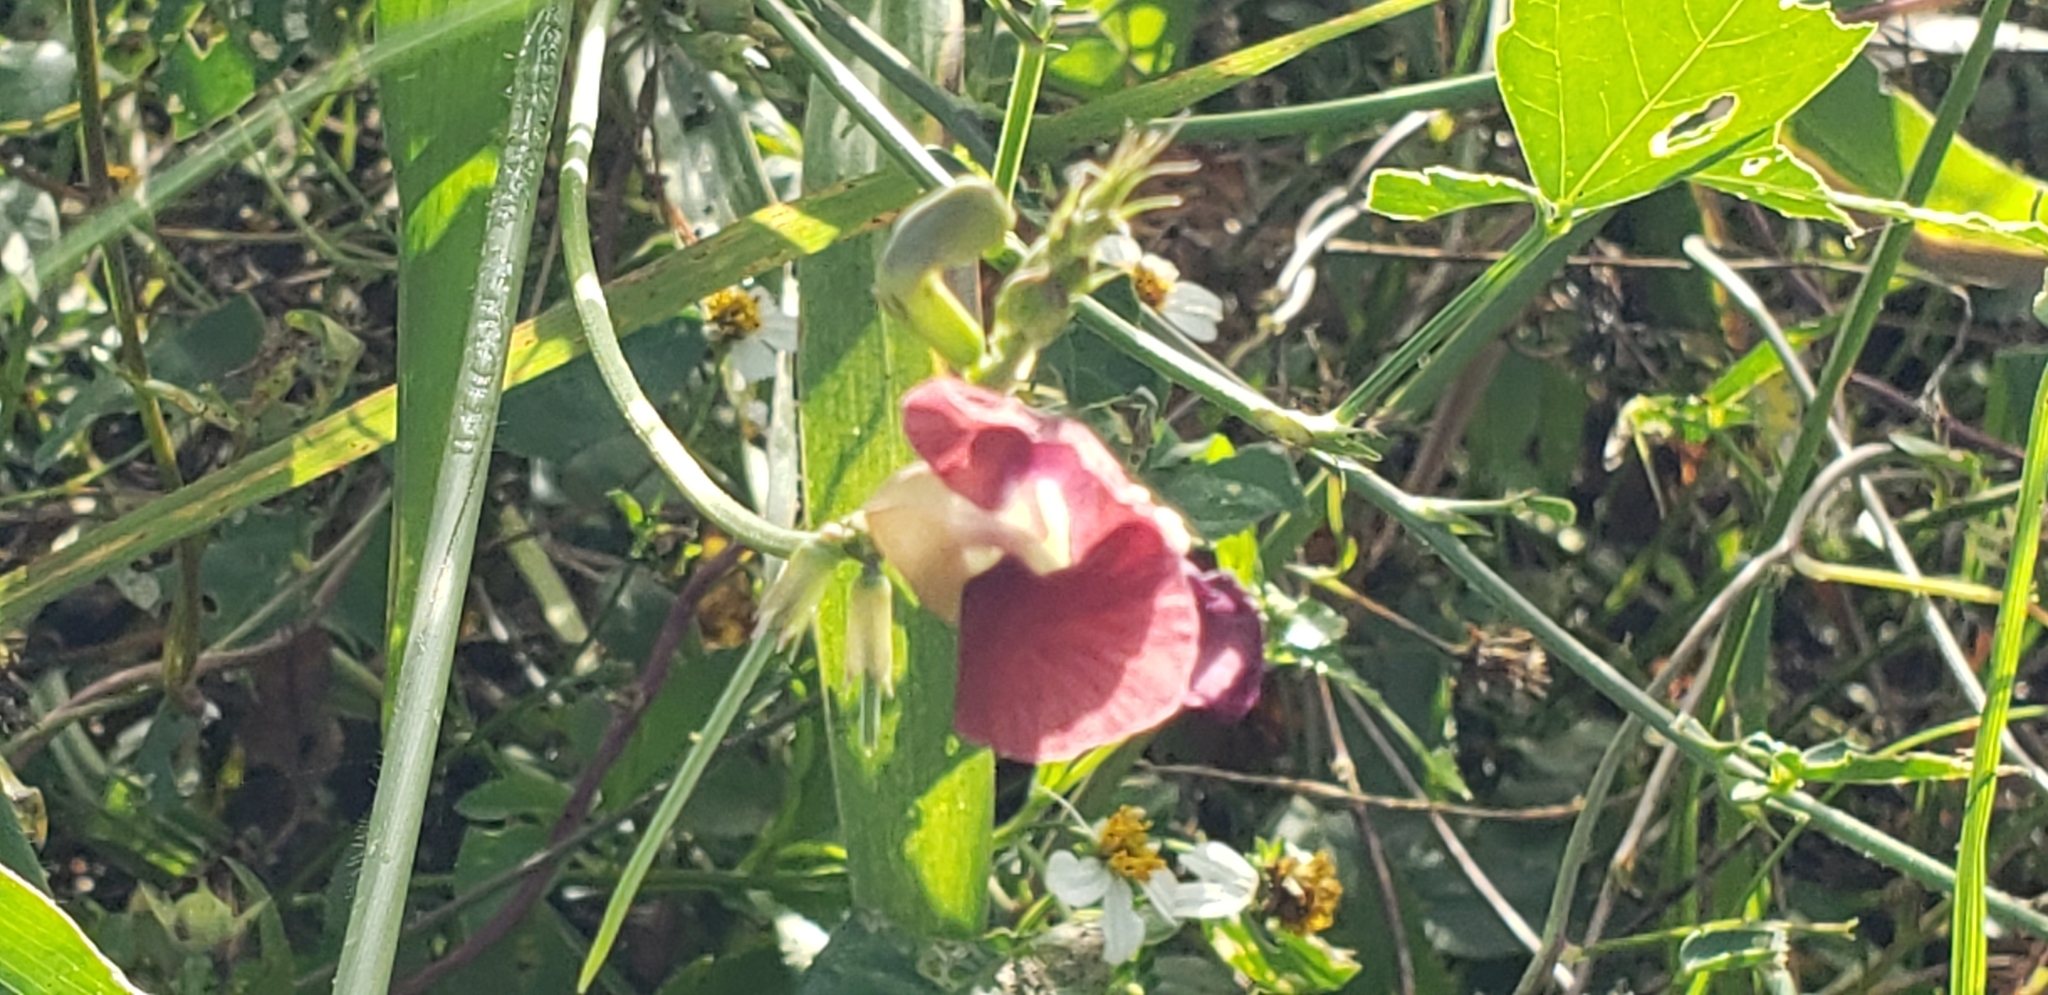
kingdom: Plantae
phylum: Tracheophyta
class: Magnoliopsida
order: Fabales
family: Fabaceae
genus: Macroptilium
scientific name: Macroptilium lathyroides
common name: Wild bushbean
